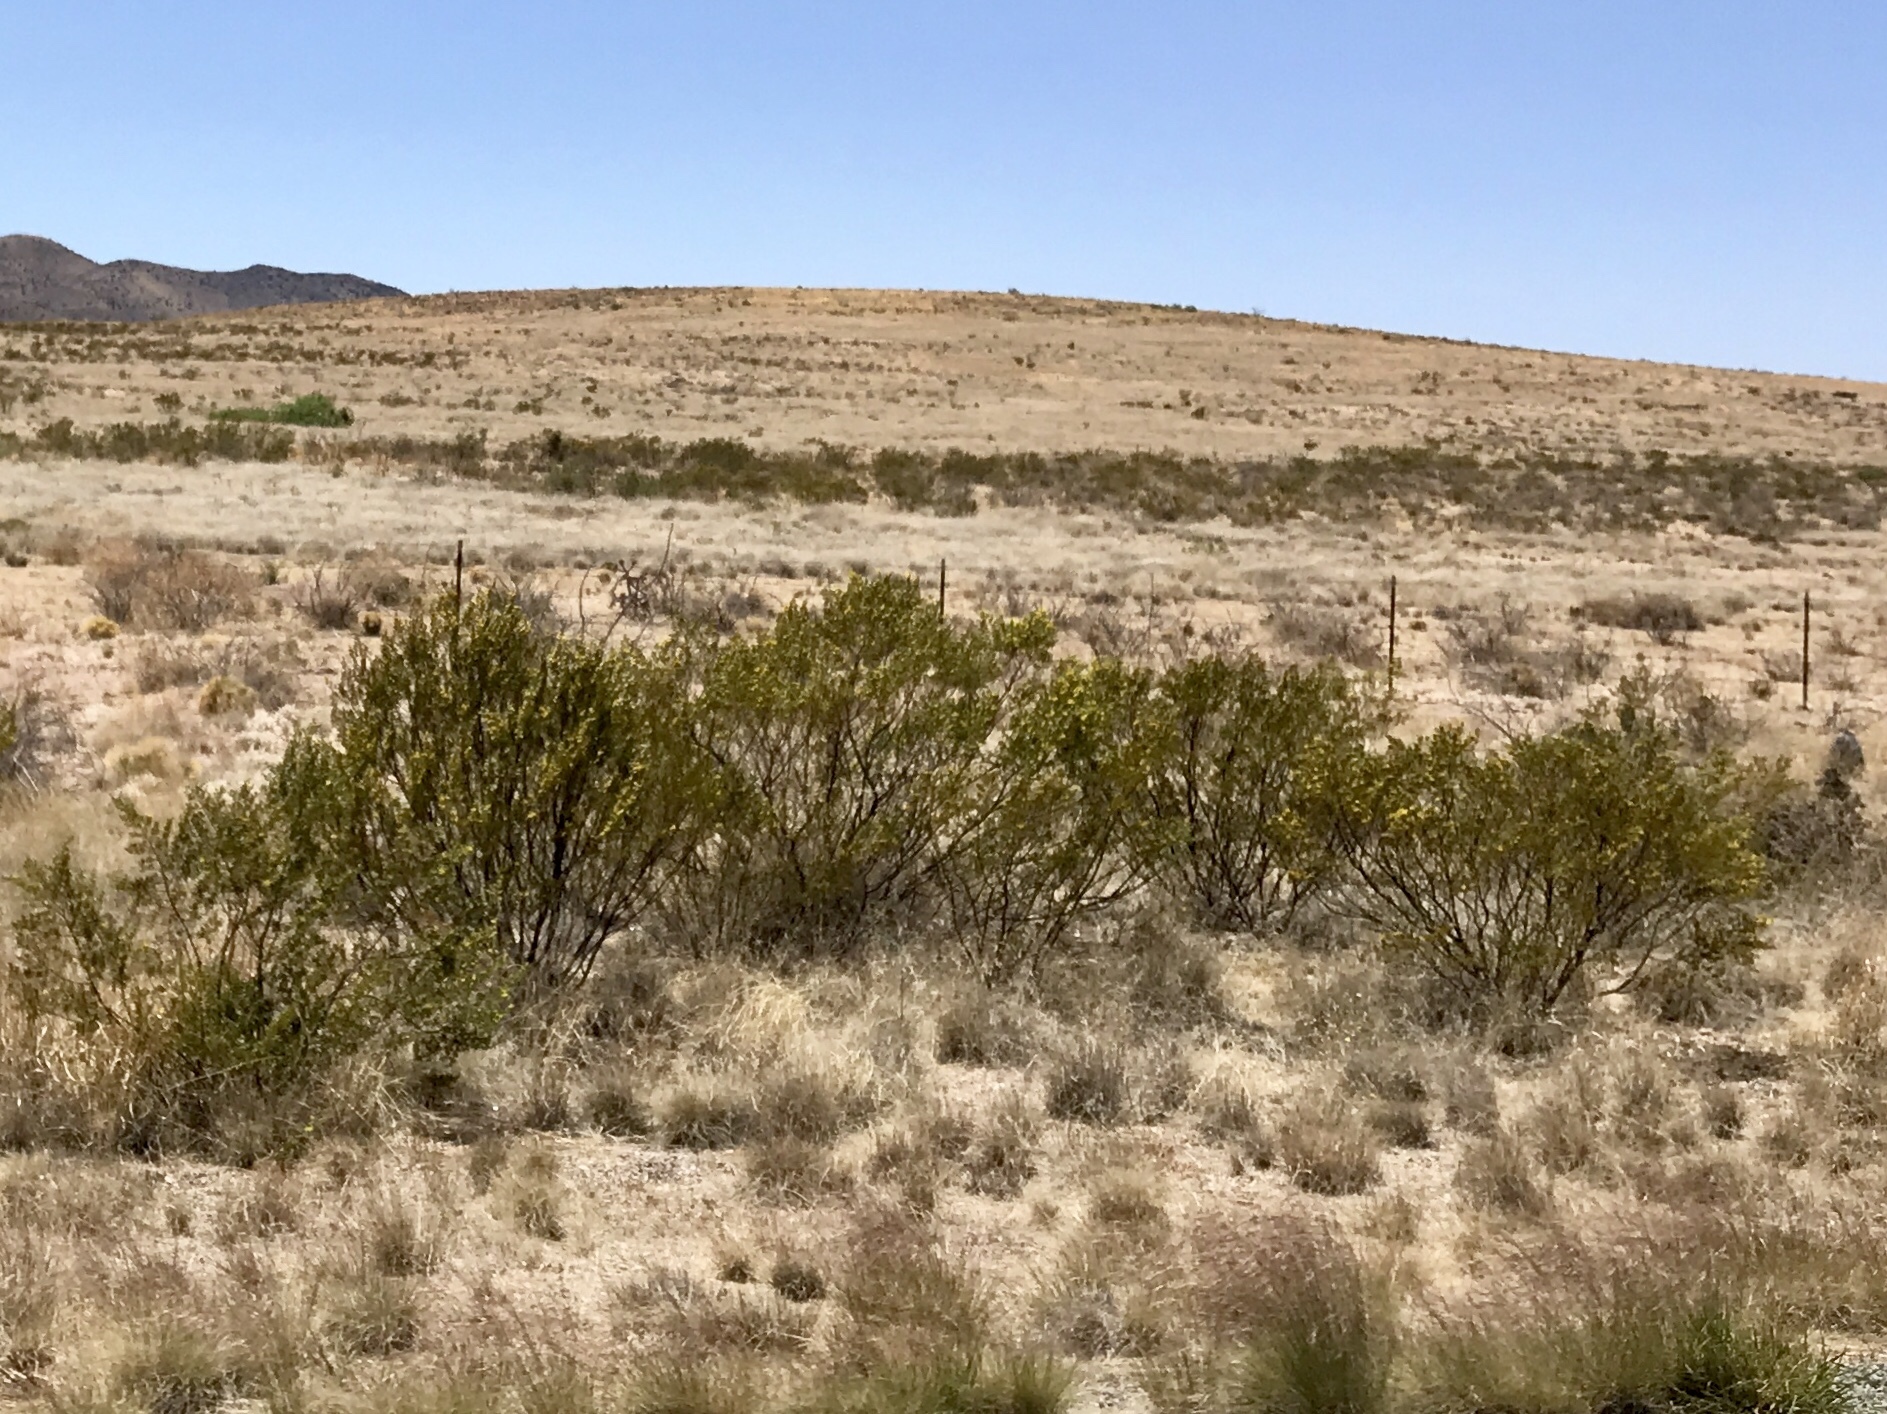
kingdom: Plantae
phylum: Tracheophyta
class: Magnoliopsida
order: Zygophyllales
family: Zygophyllaceae
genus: Larrea
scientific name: Larrea tridentata
